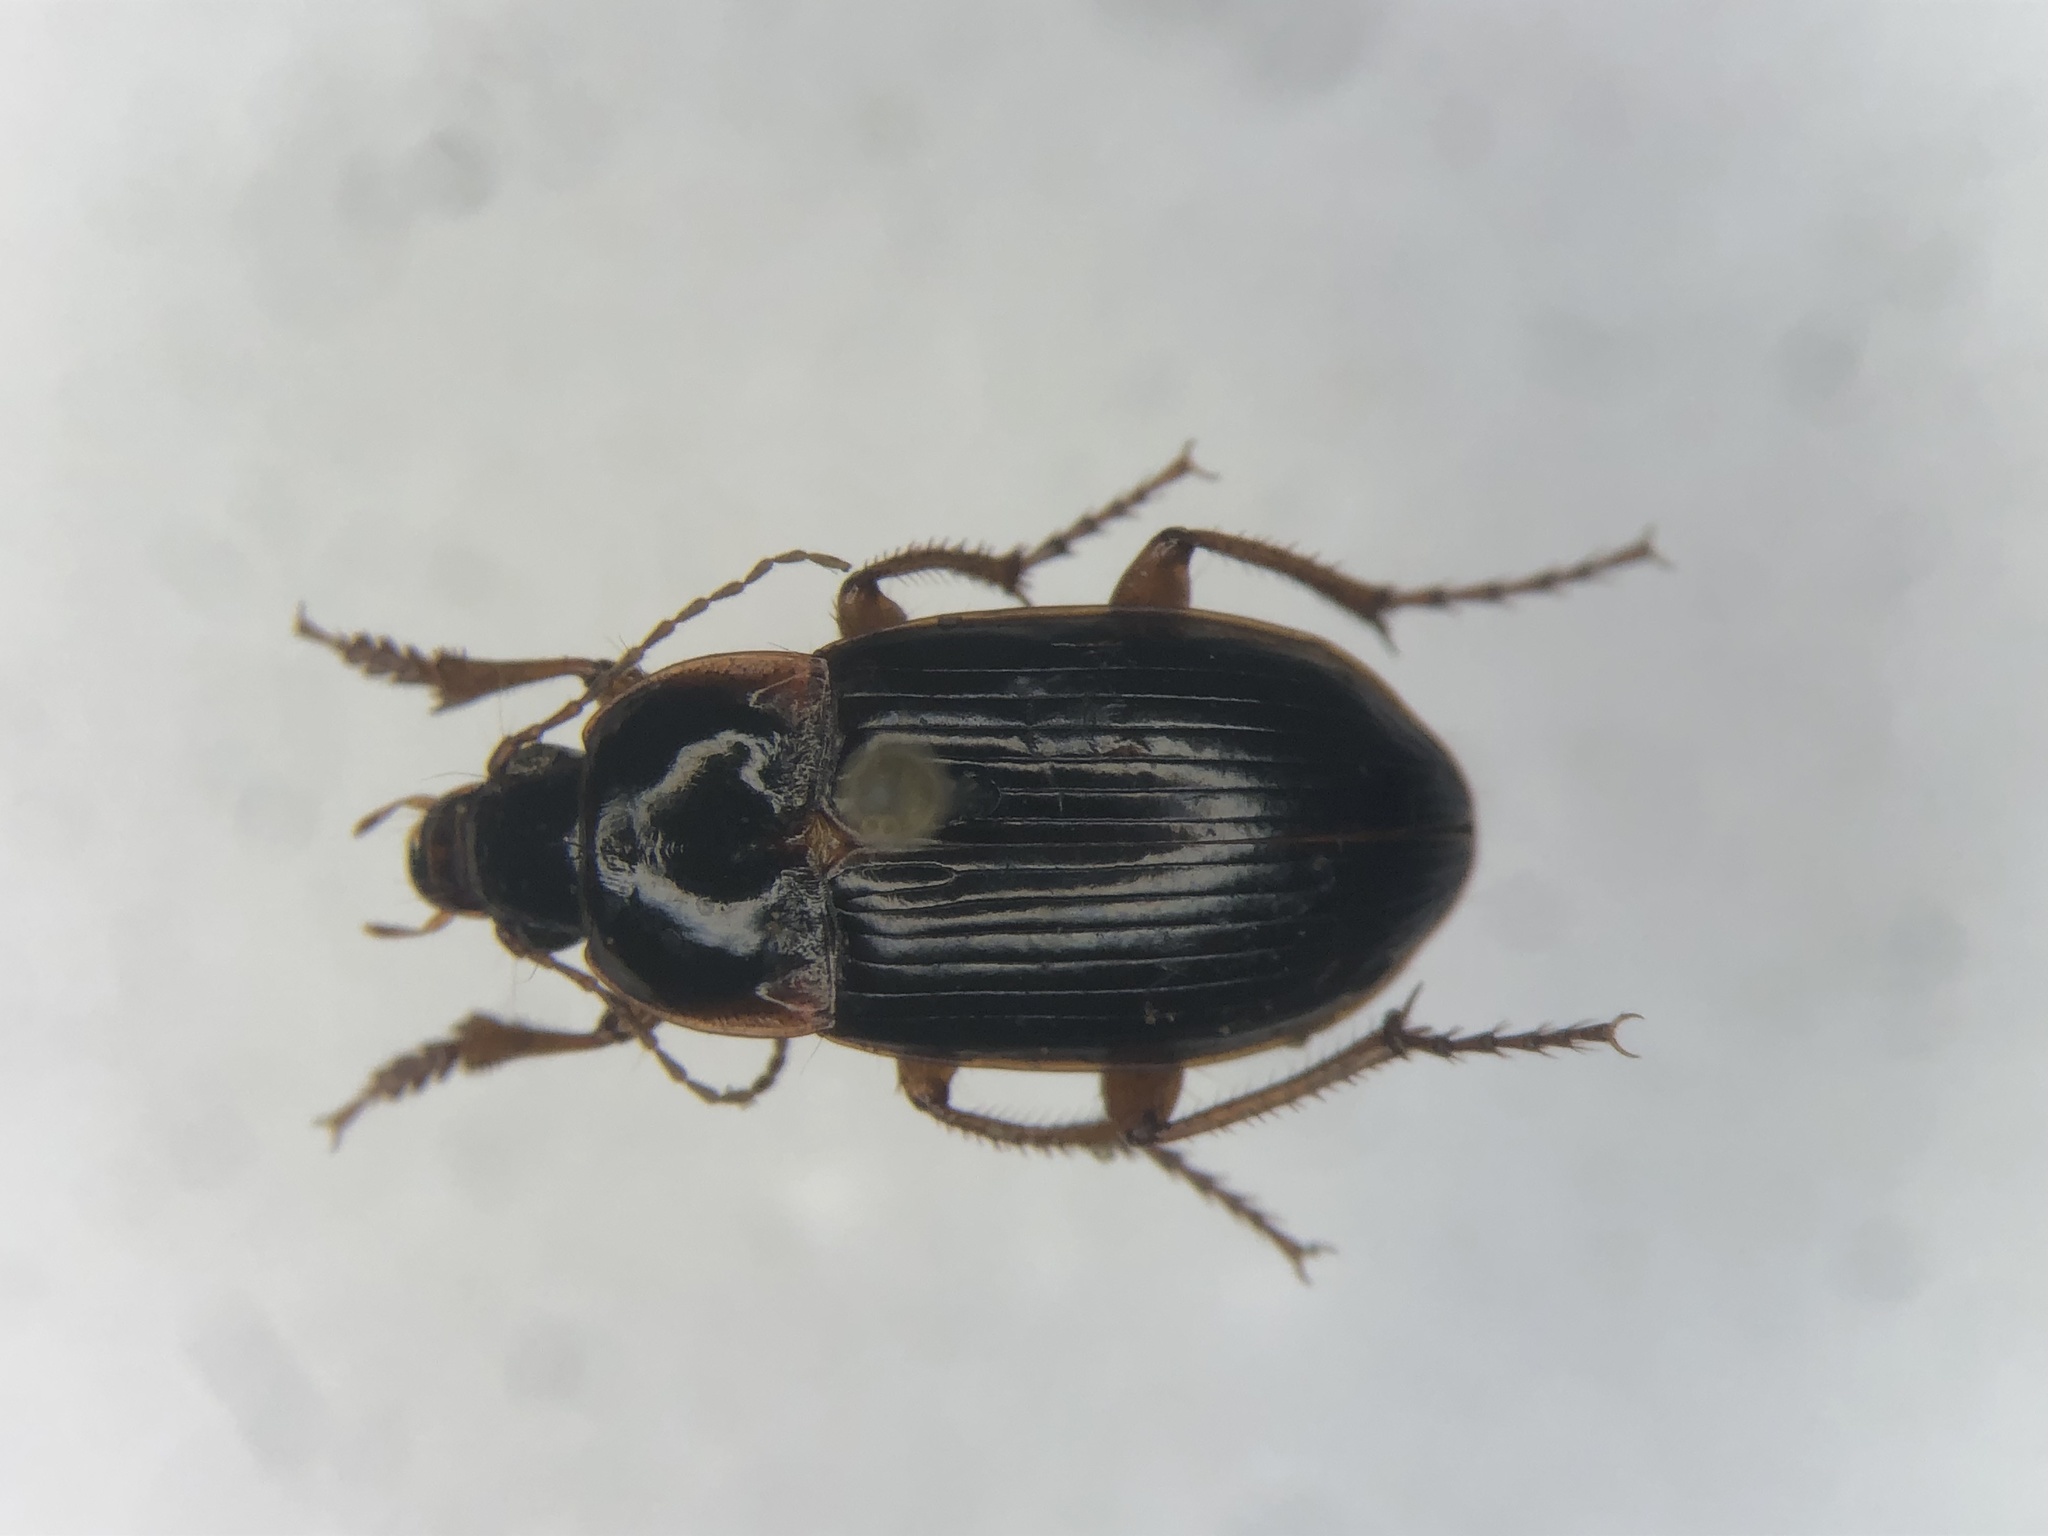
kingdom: Animalia
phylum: Arthropoda
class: Insecta
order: Coleoptera
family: Carabidae
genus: Amara
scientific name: Amara obesa
